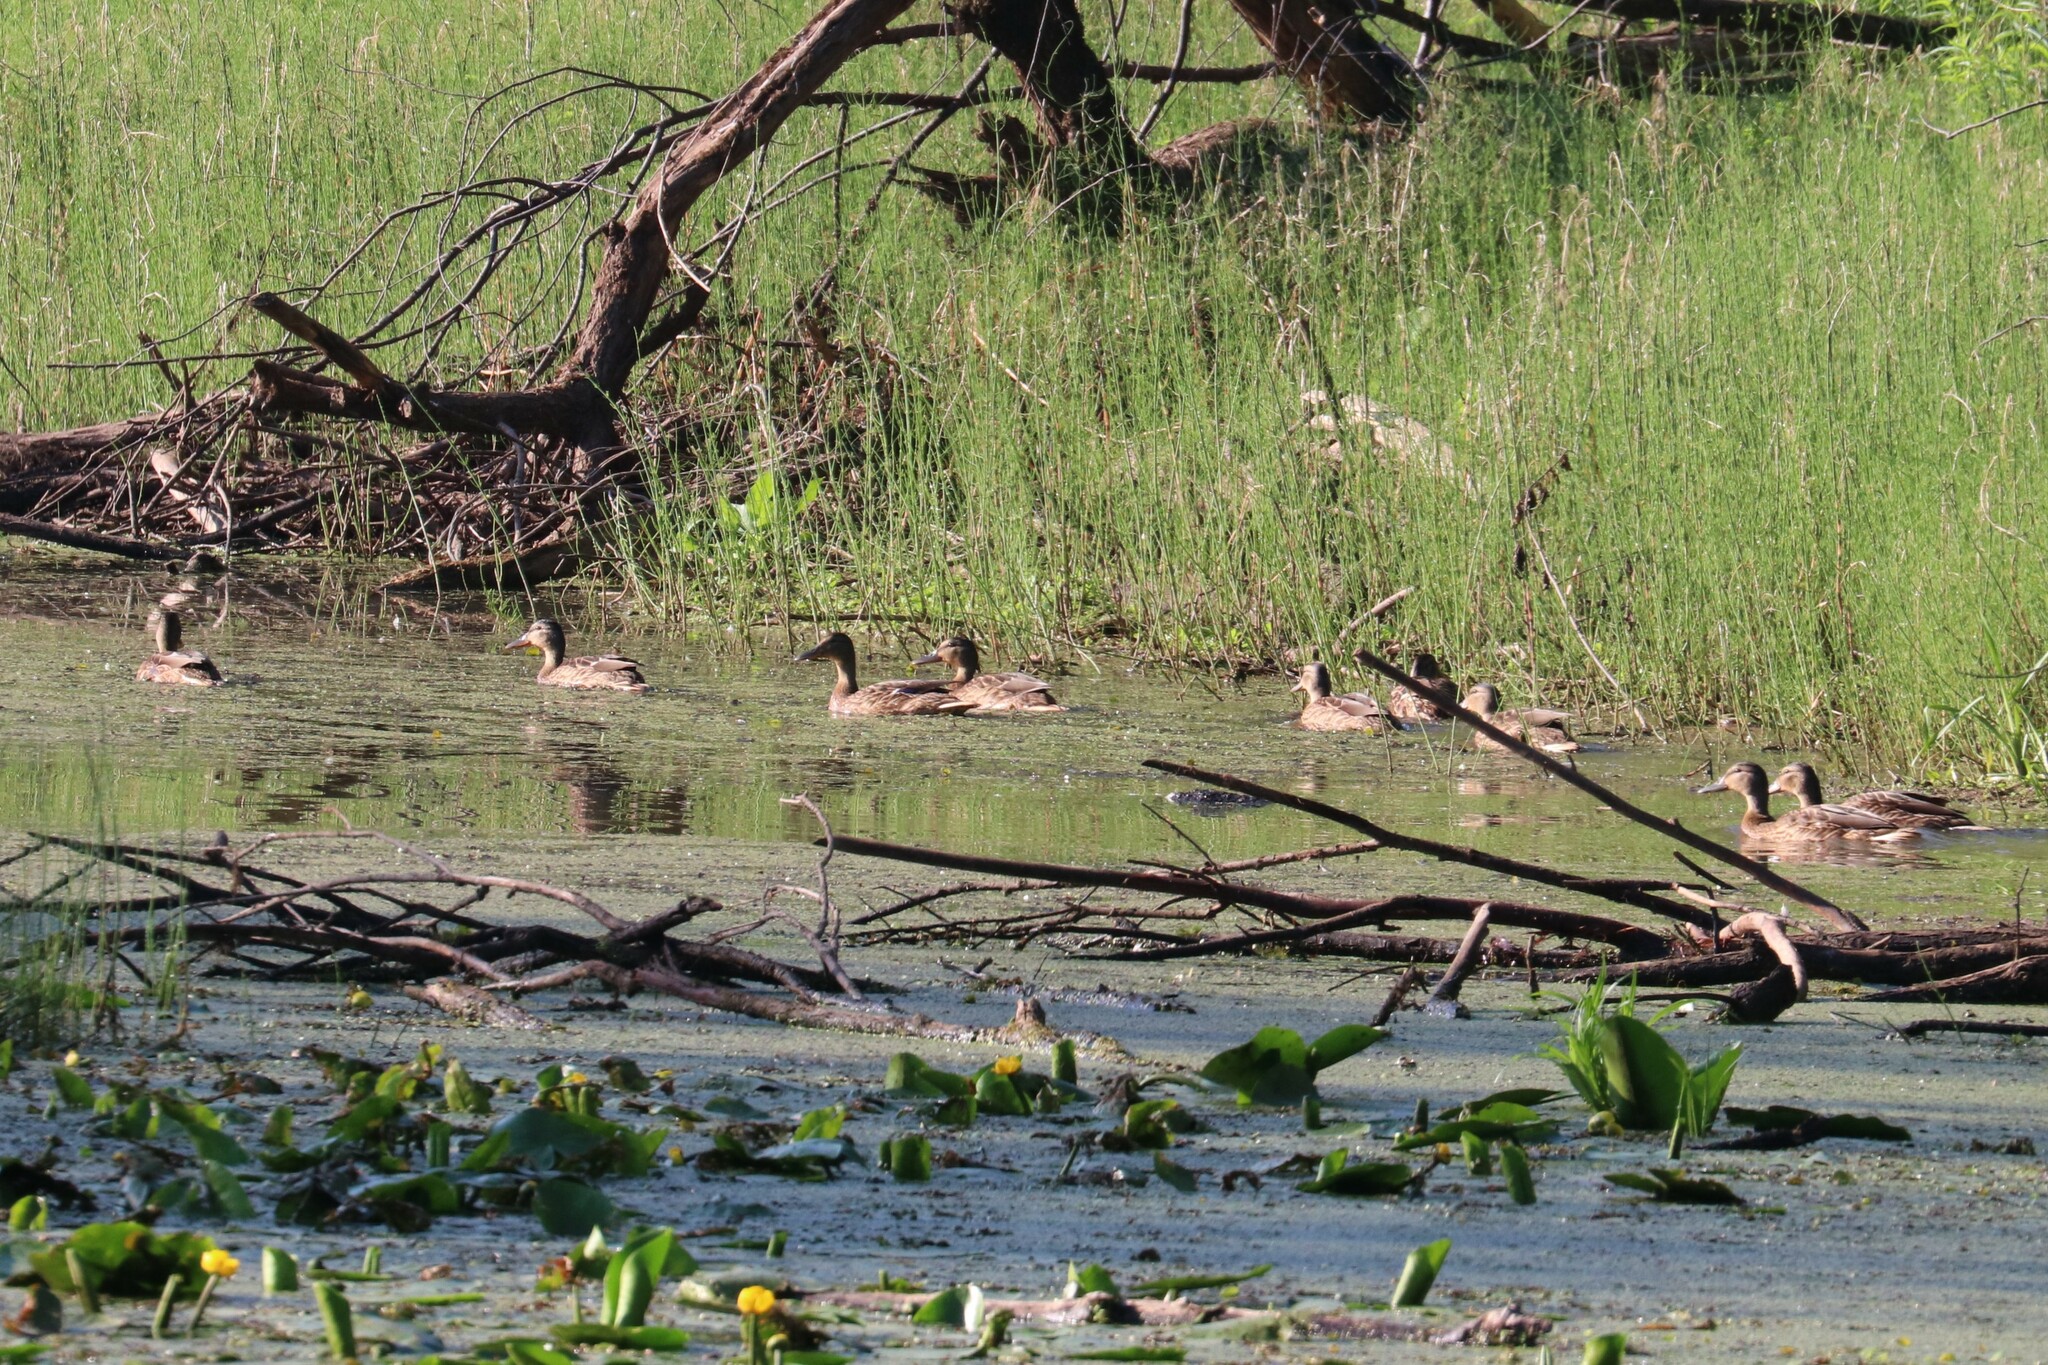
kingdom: Animalia
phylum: Chordata
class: Aves
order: Anseriformes
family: Anatidae
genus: Anas
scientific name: Anas platyrhynchos
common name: Mallard
